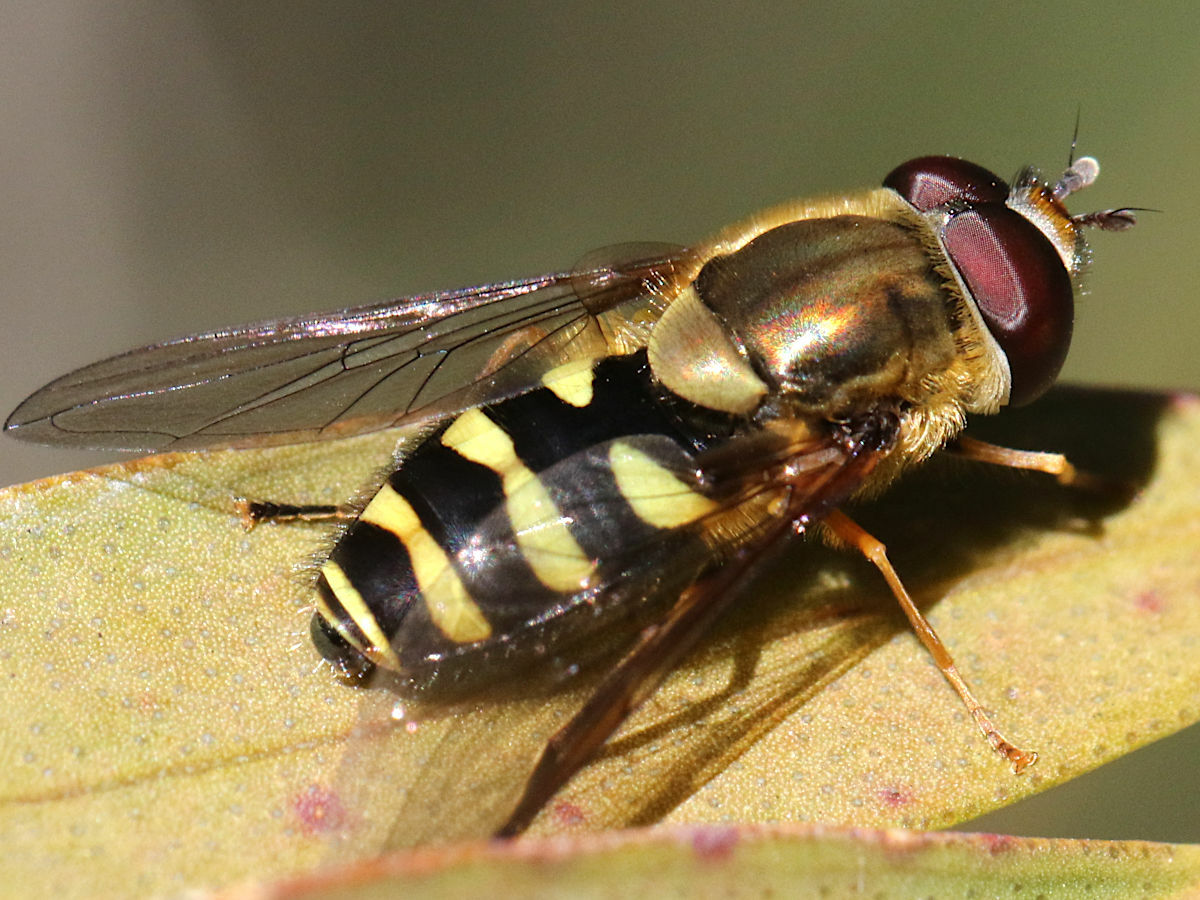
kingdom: Animalia
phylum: Arthropoda
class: Insecta
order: Diptera
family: Syrphidae
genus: Syrphus
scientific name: Syrphus opinator
